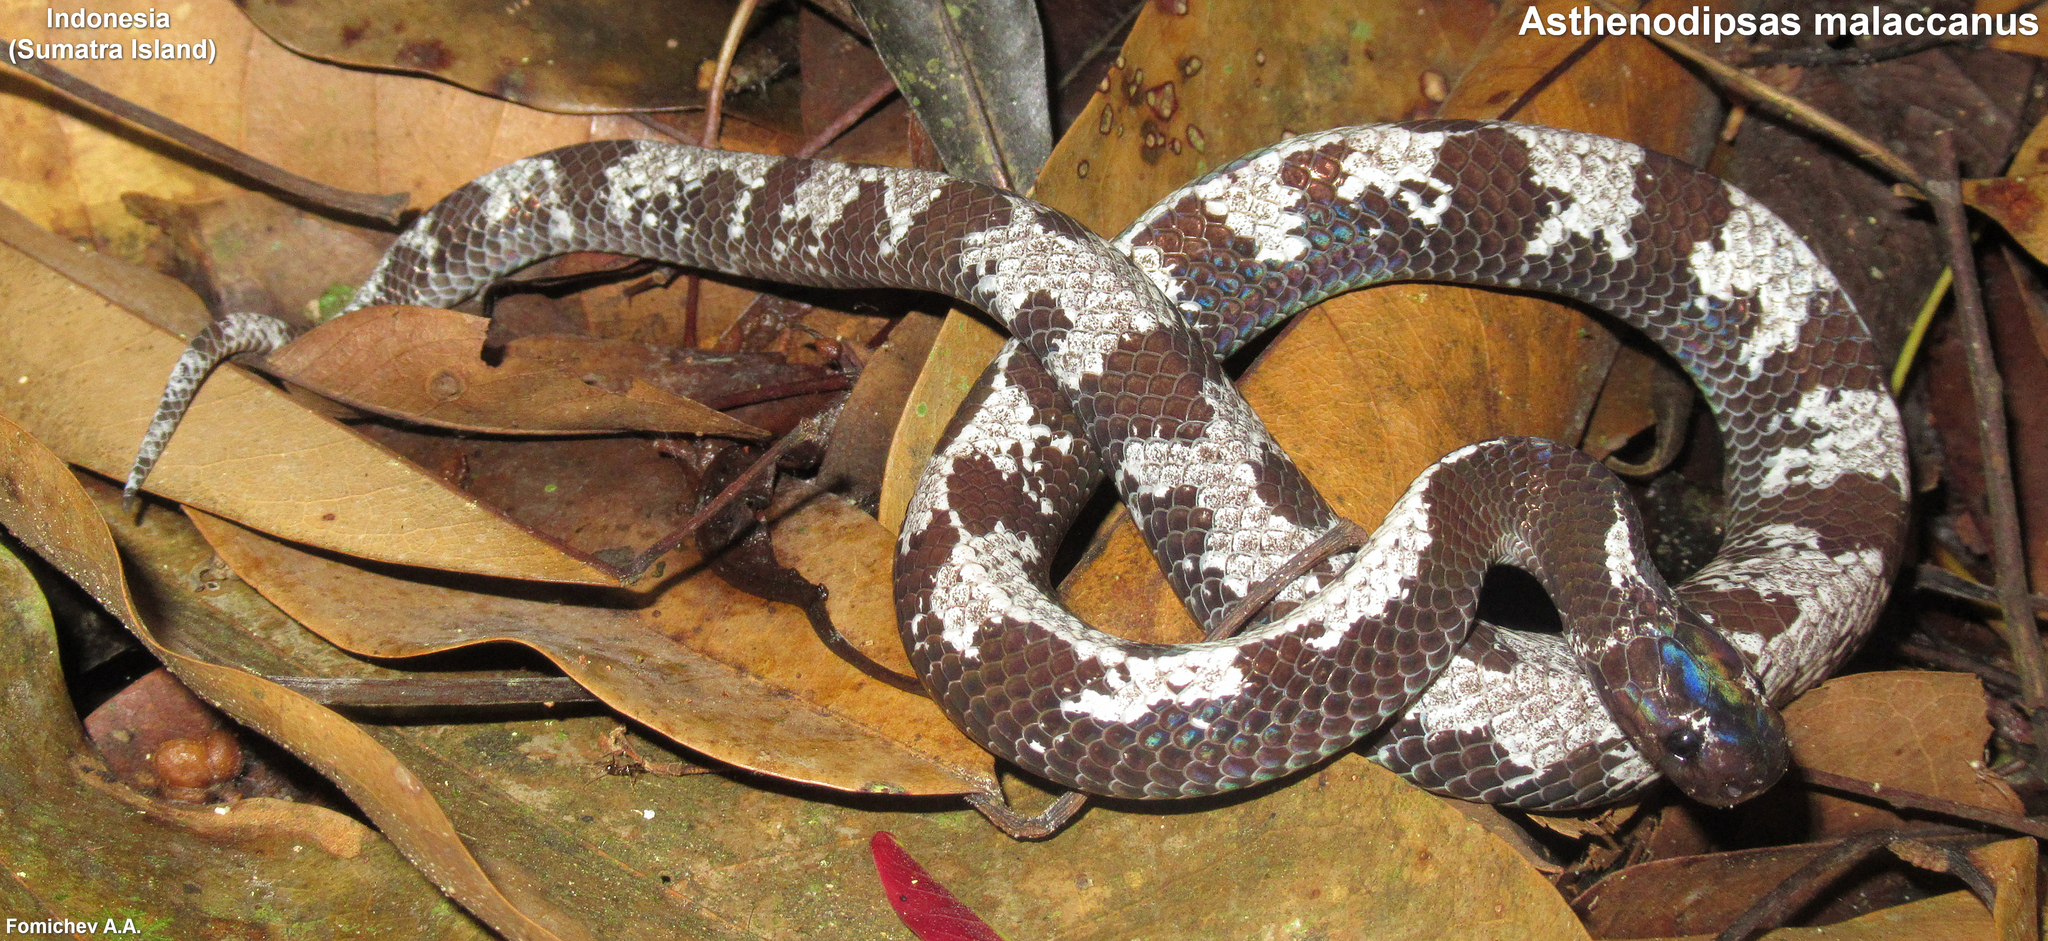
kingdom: Animalia
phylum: Chordata
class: Squamata
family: Pareidae
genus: Asthenodipsas
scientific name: Asthenodipsas malaccanus
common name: Malayan slug snake
